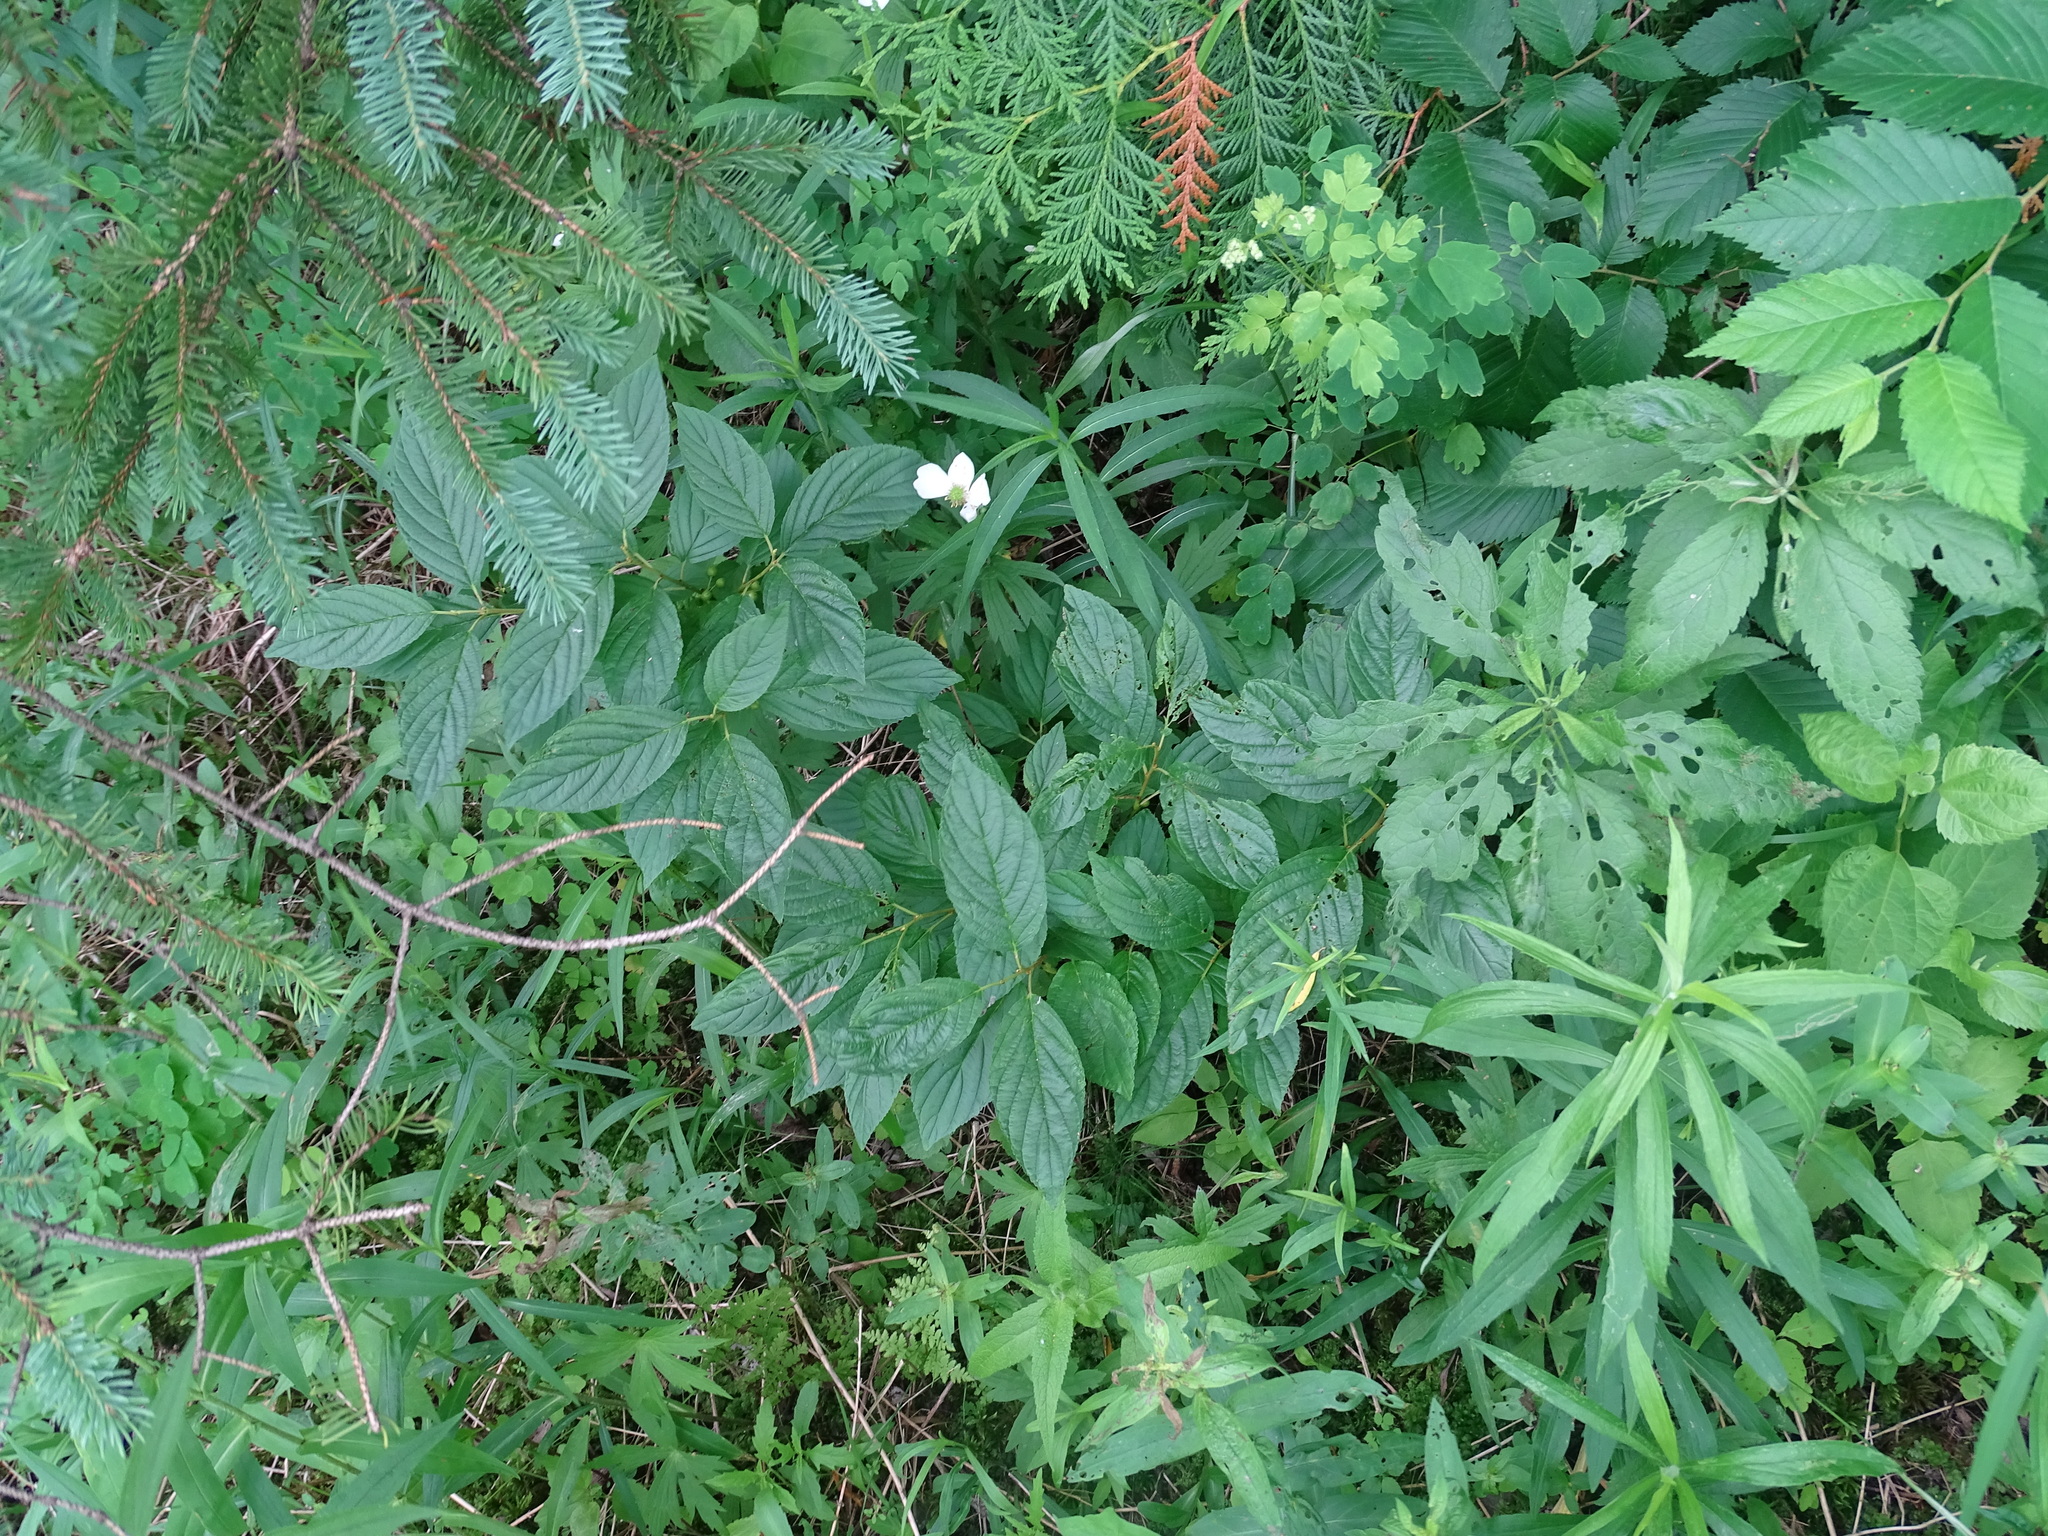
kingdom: Plantae
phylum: Tracheophyta
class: Magnoliopsida
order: Rosales
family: Rhamnaceae
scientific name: Rhamnaceae
